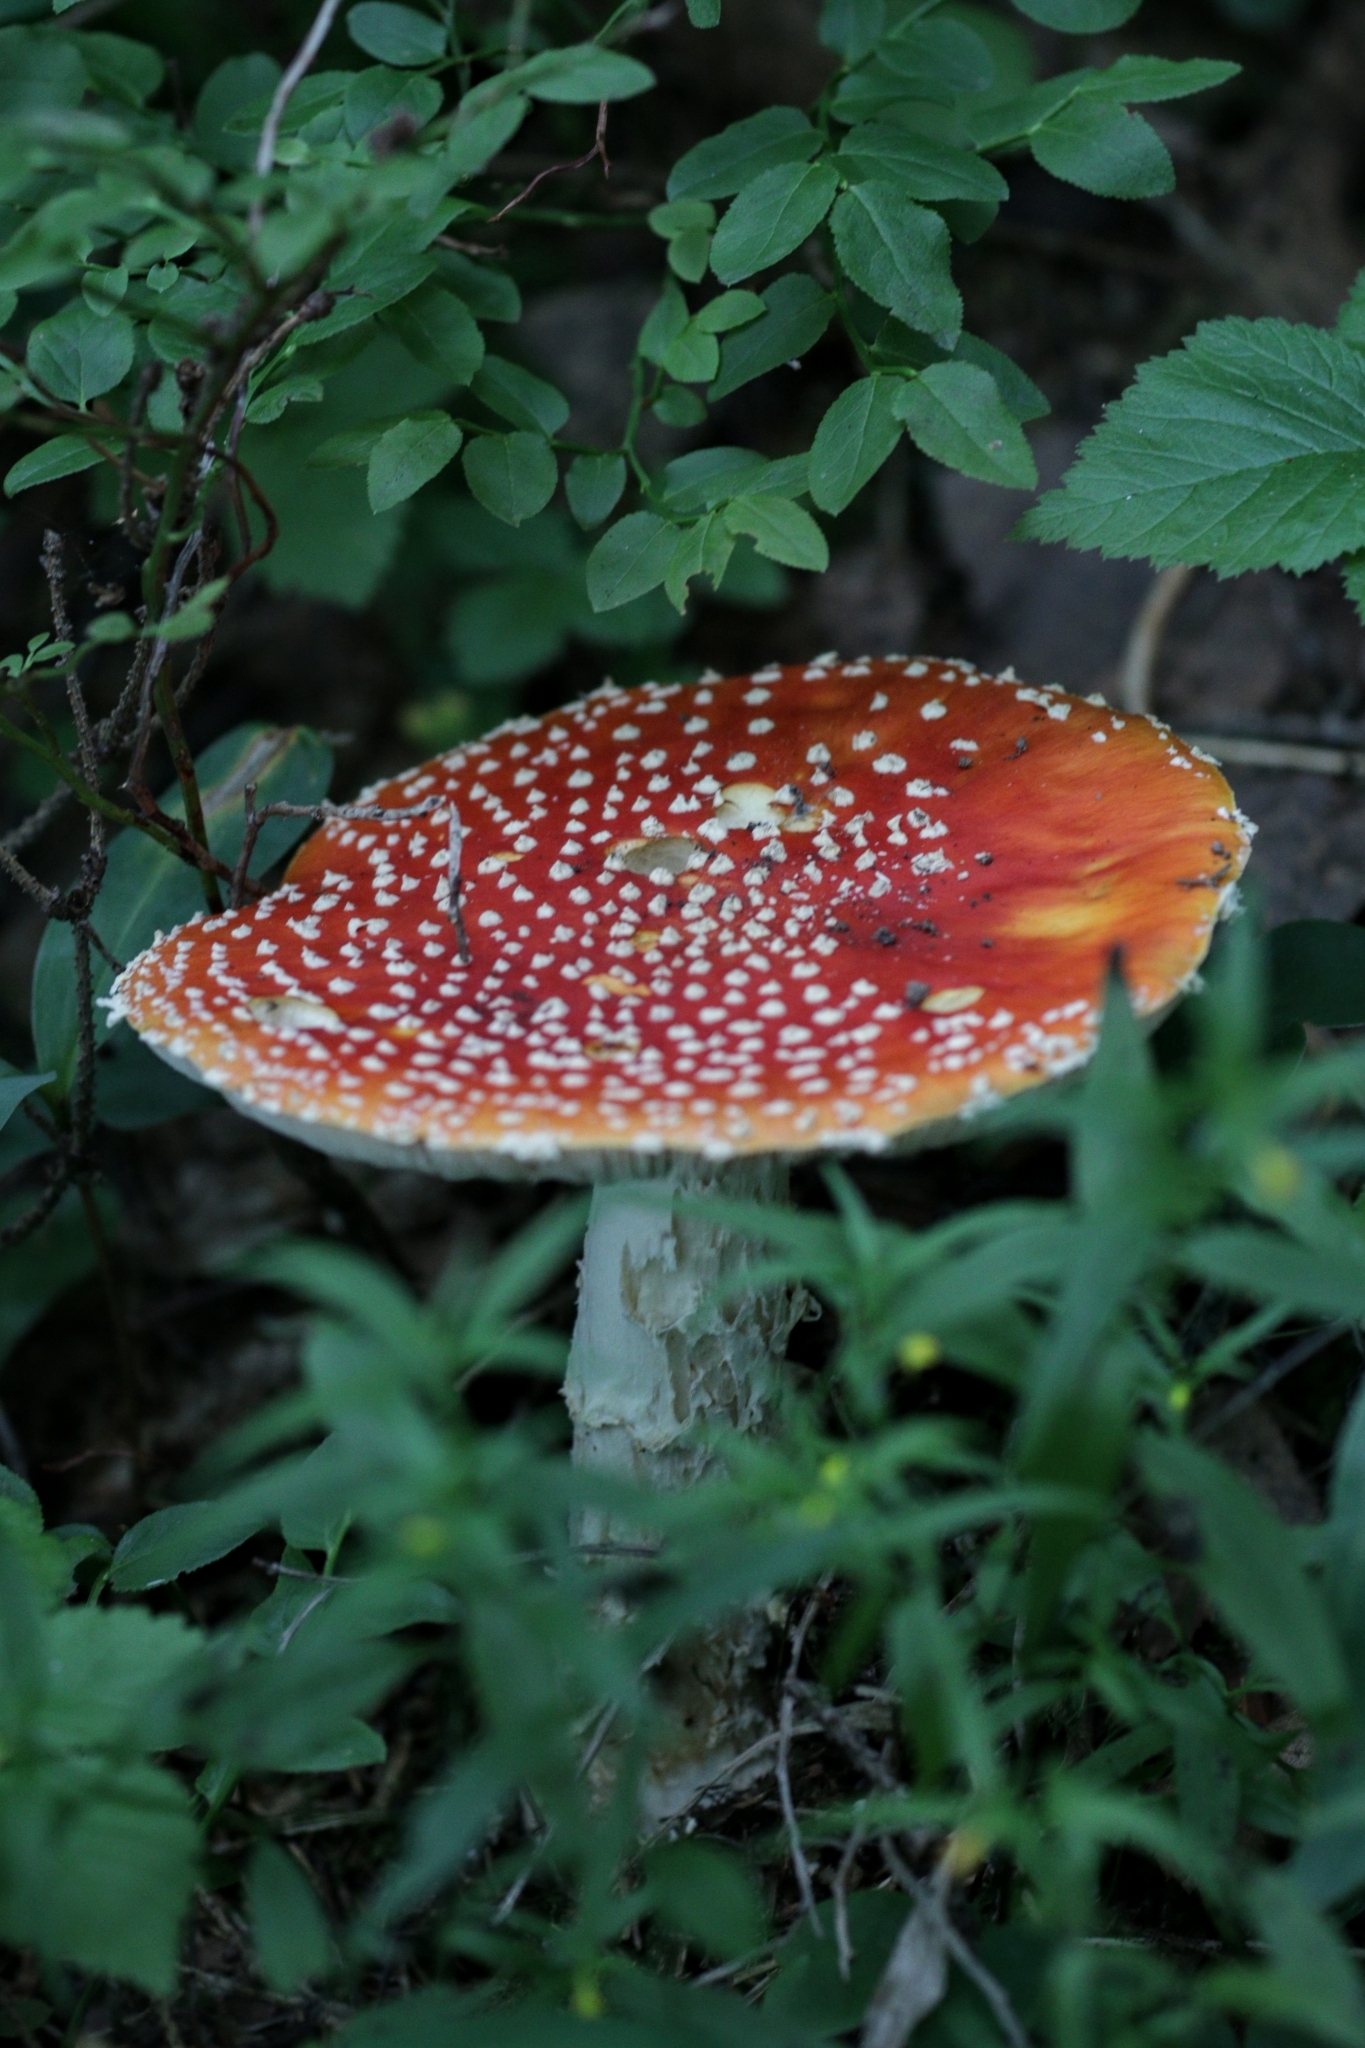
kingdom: Fungi
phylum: Basidiomycota
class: Agaricomycetes
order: Agaricales
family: Amanitaceae
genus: Amanita
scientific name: Amanita muscaria
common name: Fly agaric
